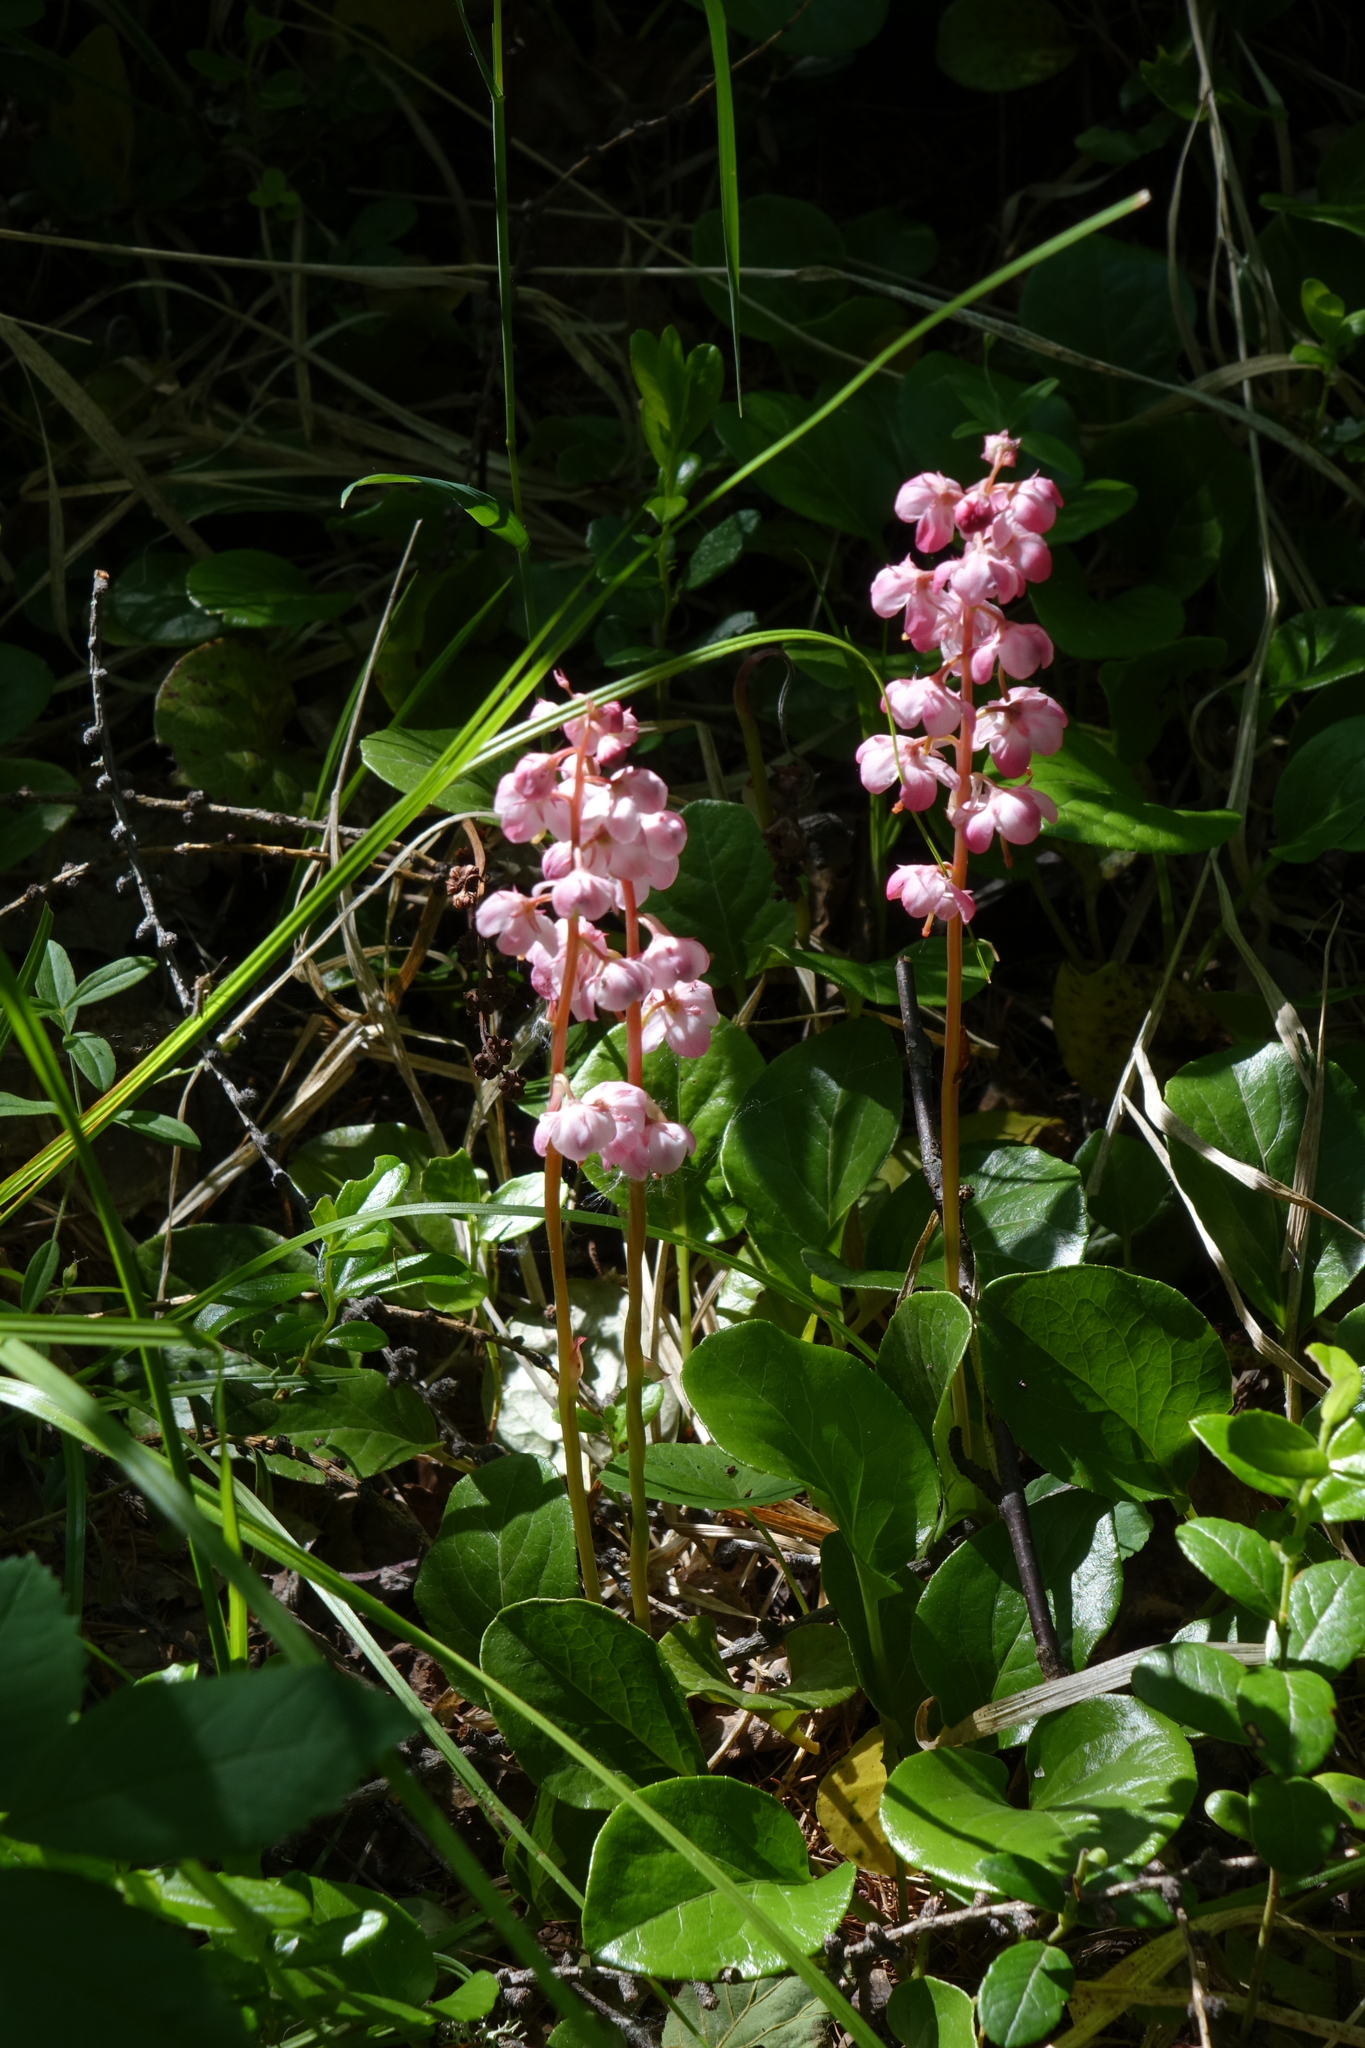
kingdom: Plantae
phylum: Tracheophyta
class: Magnoliopsida
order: Ericales
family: Ericaceae
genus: Pyrola
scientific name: Pyrola asarifolia
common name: Bog wintergreen
